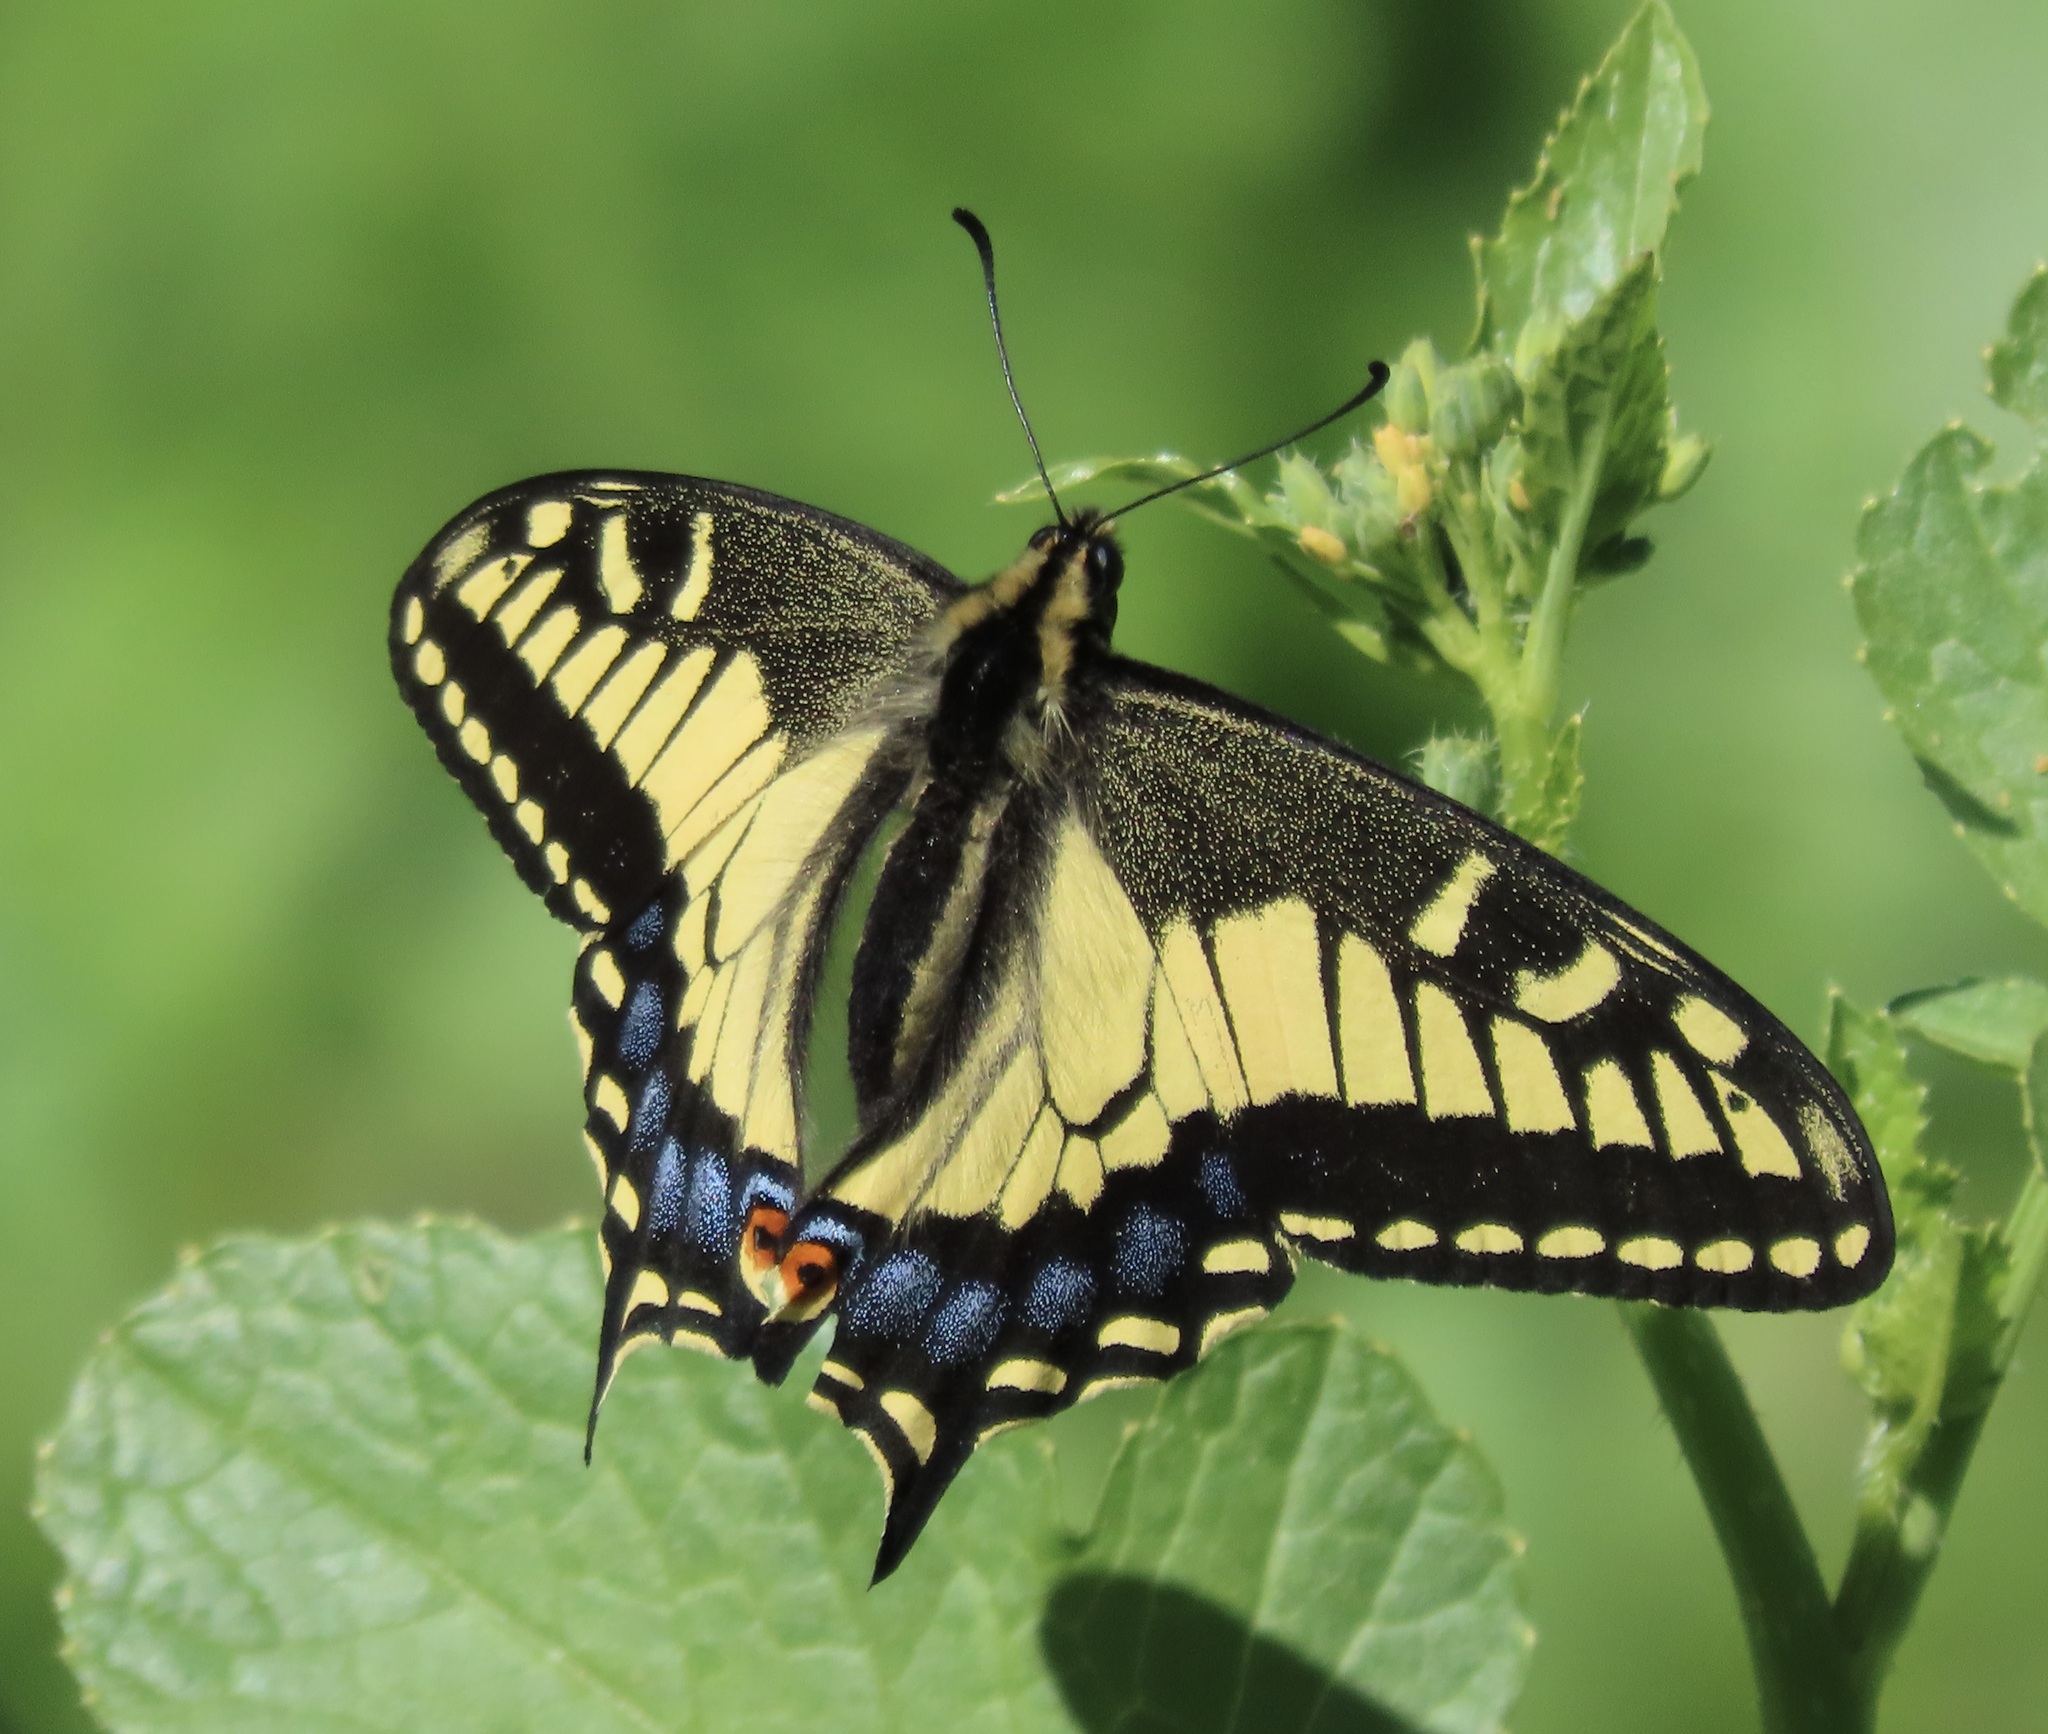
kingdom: Animalia
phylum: Arthropoda
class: Insecta
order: Lepidoptera
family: Papilionidae
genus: Papilio
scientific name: Papilio zelicaon
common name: Anise swallowtail
